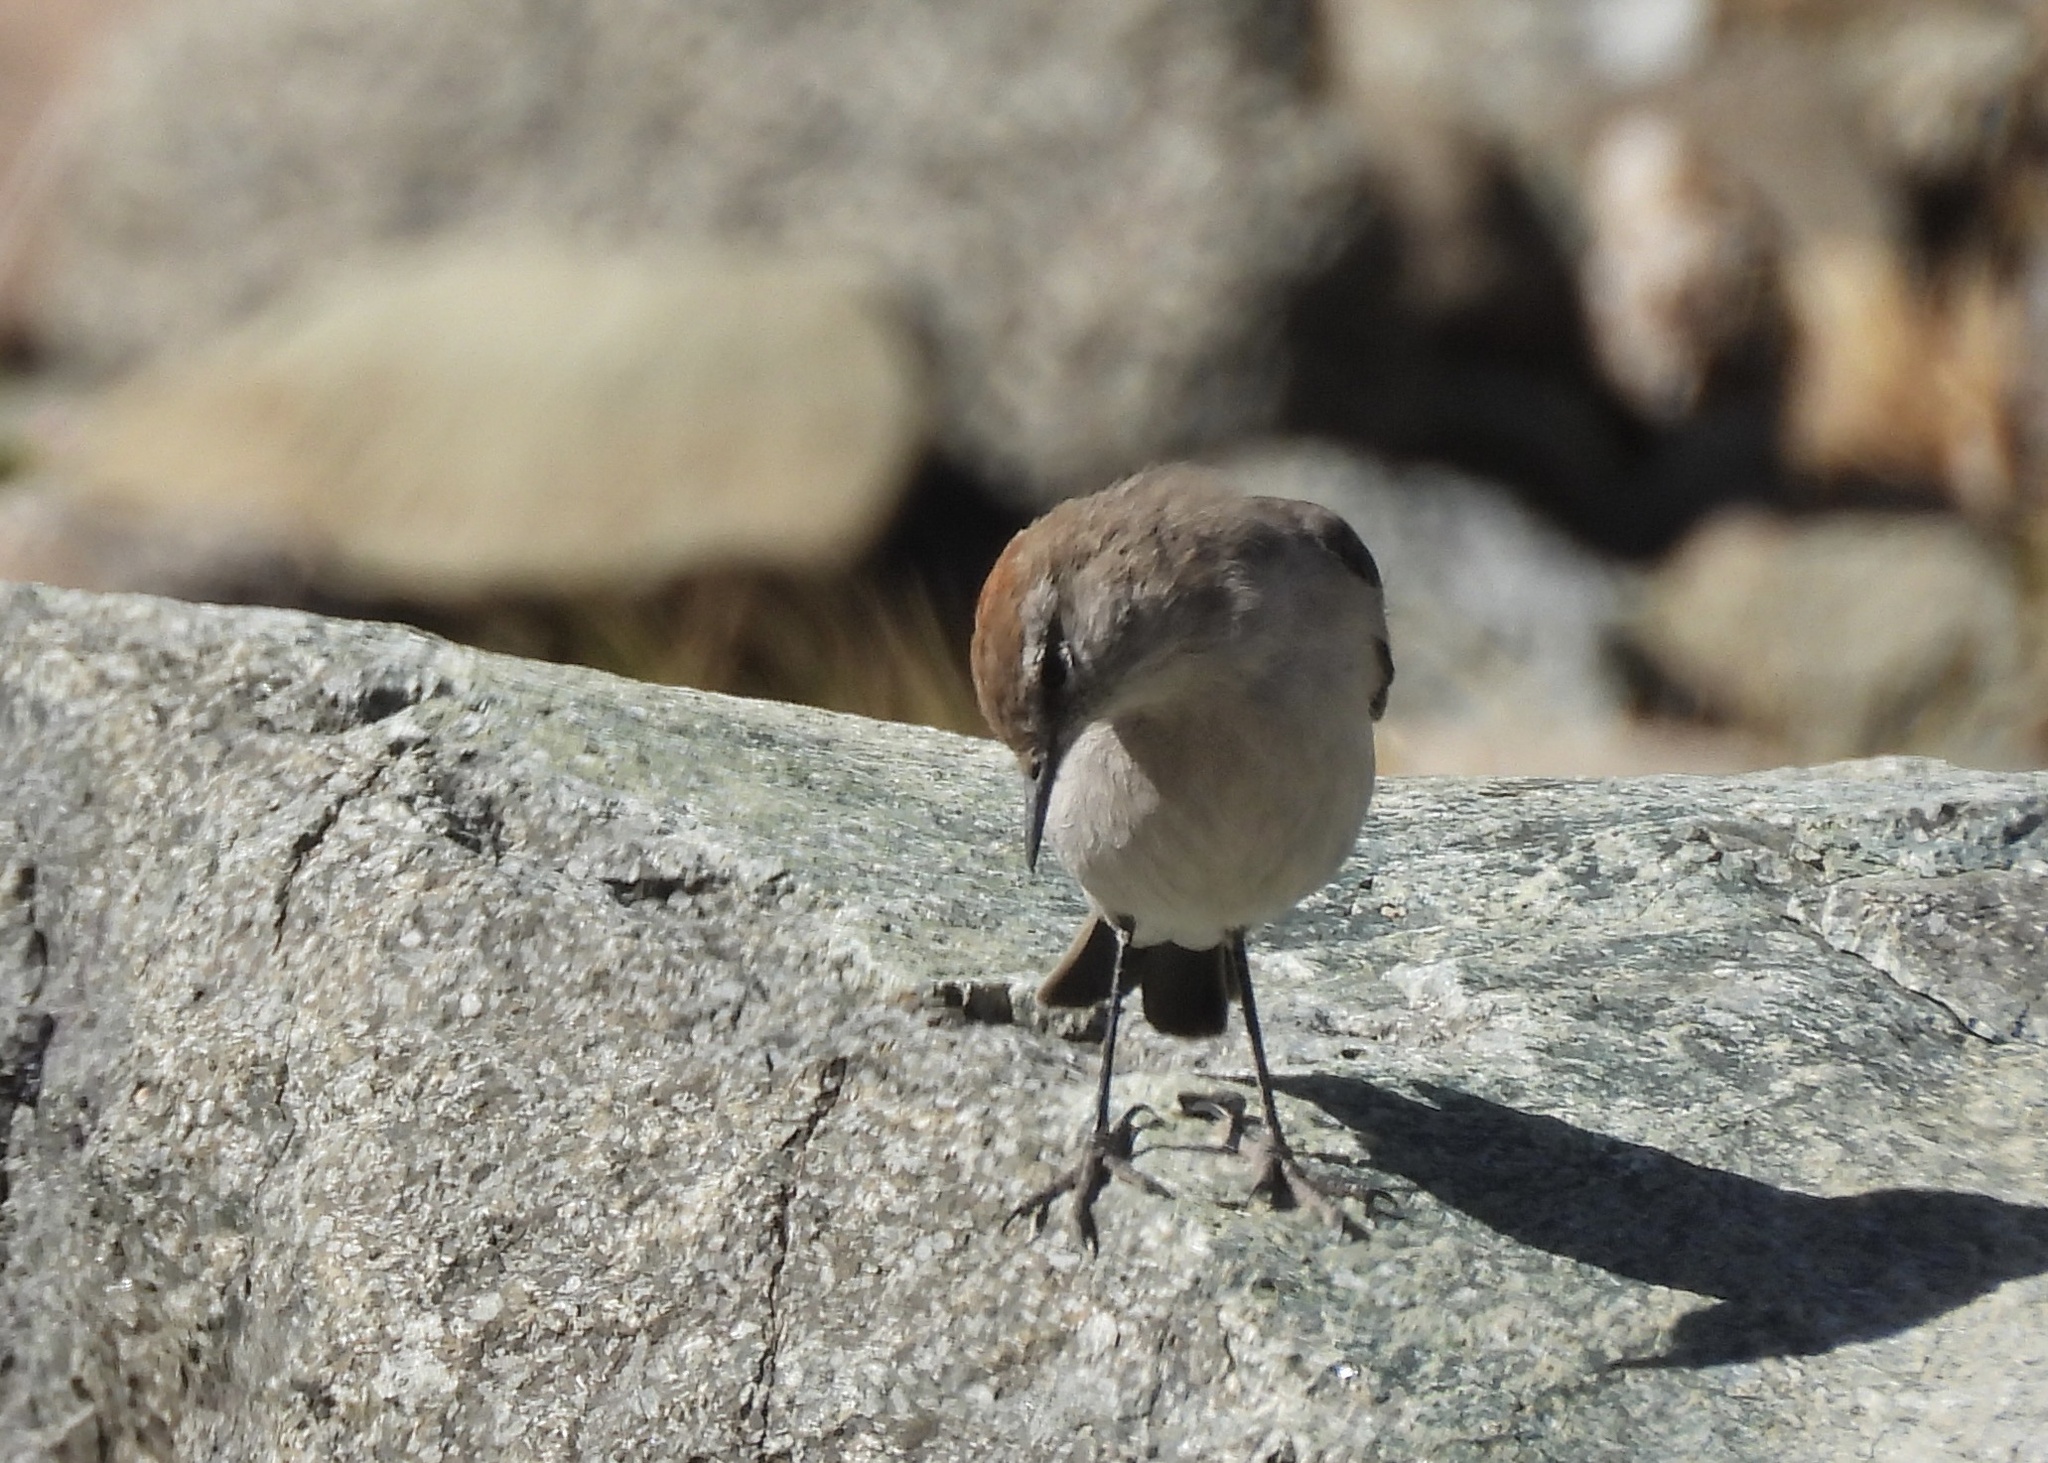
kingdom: Animalia
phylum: Chordata
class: Aves
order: Passeriformes
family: Tyrannidae
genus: Muscisaxicola
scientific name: Muscisaxicola albilora
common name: White-browed ground tyrant
